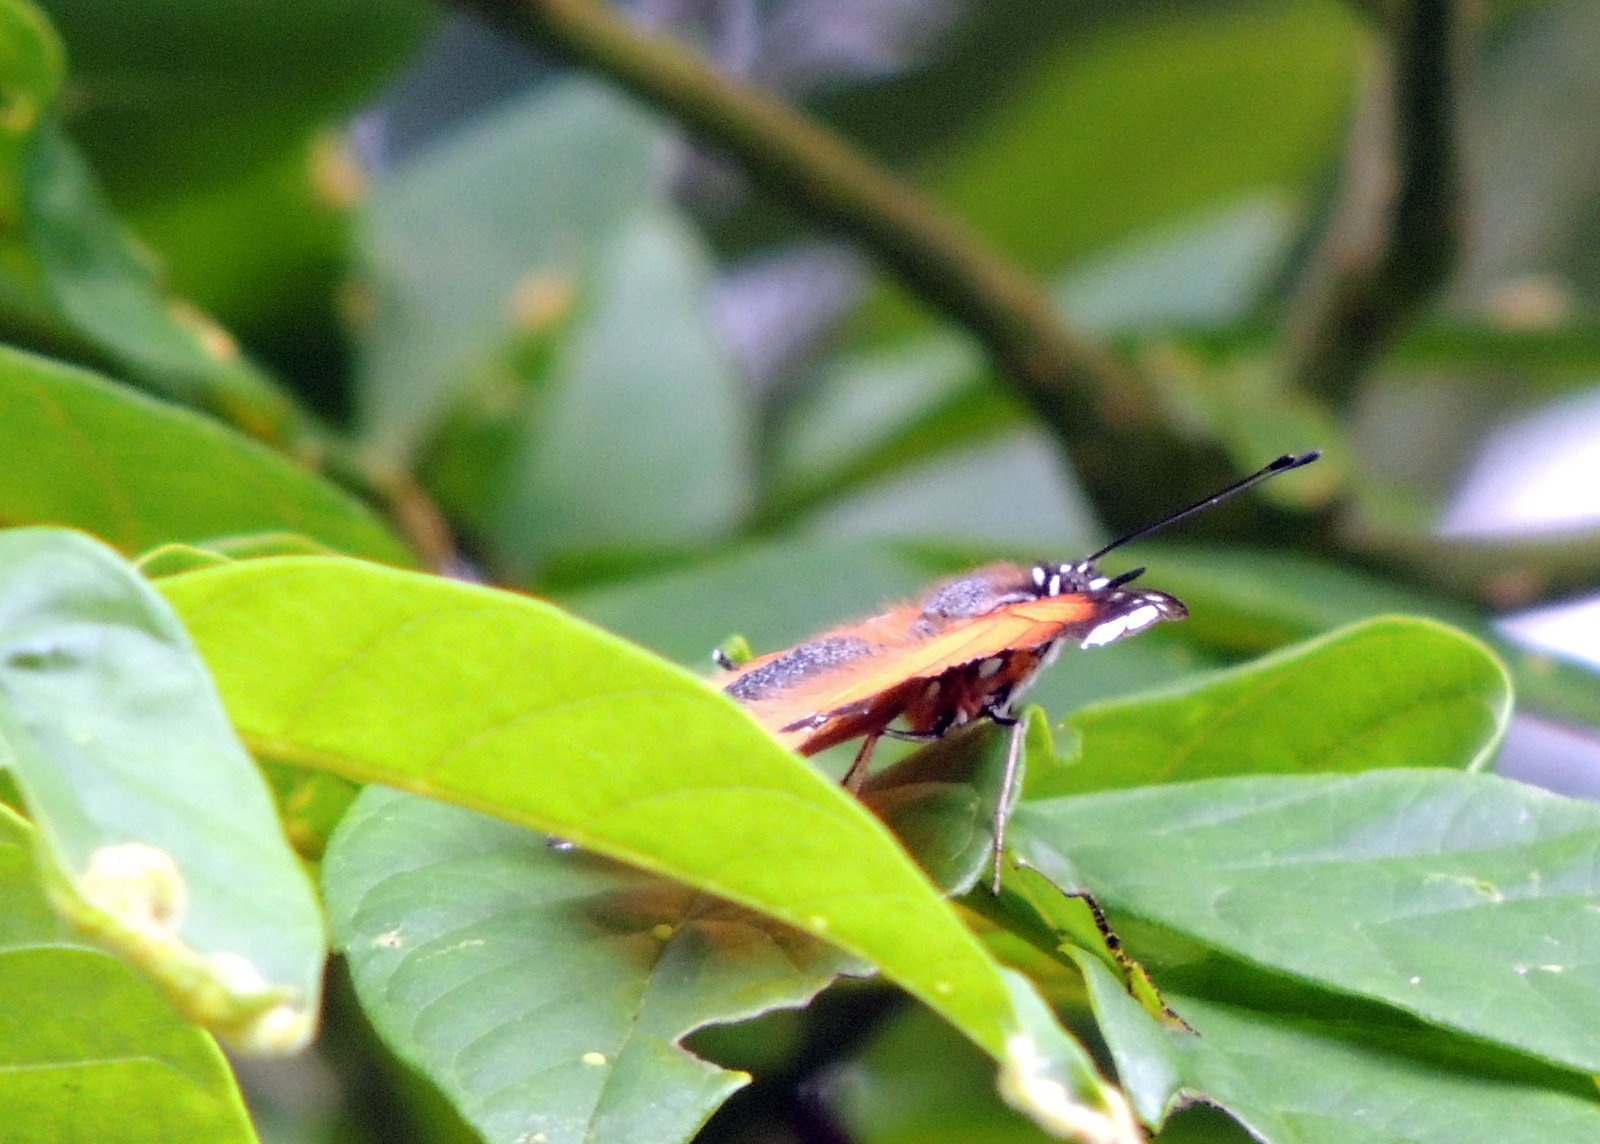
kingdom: Animalia
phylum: Arthropoda
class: Insecta
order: Lepidoptera
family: Nymphalidae
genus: Hypolimnas
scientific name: Hypolimnas misippus
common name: False plain tiger
